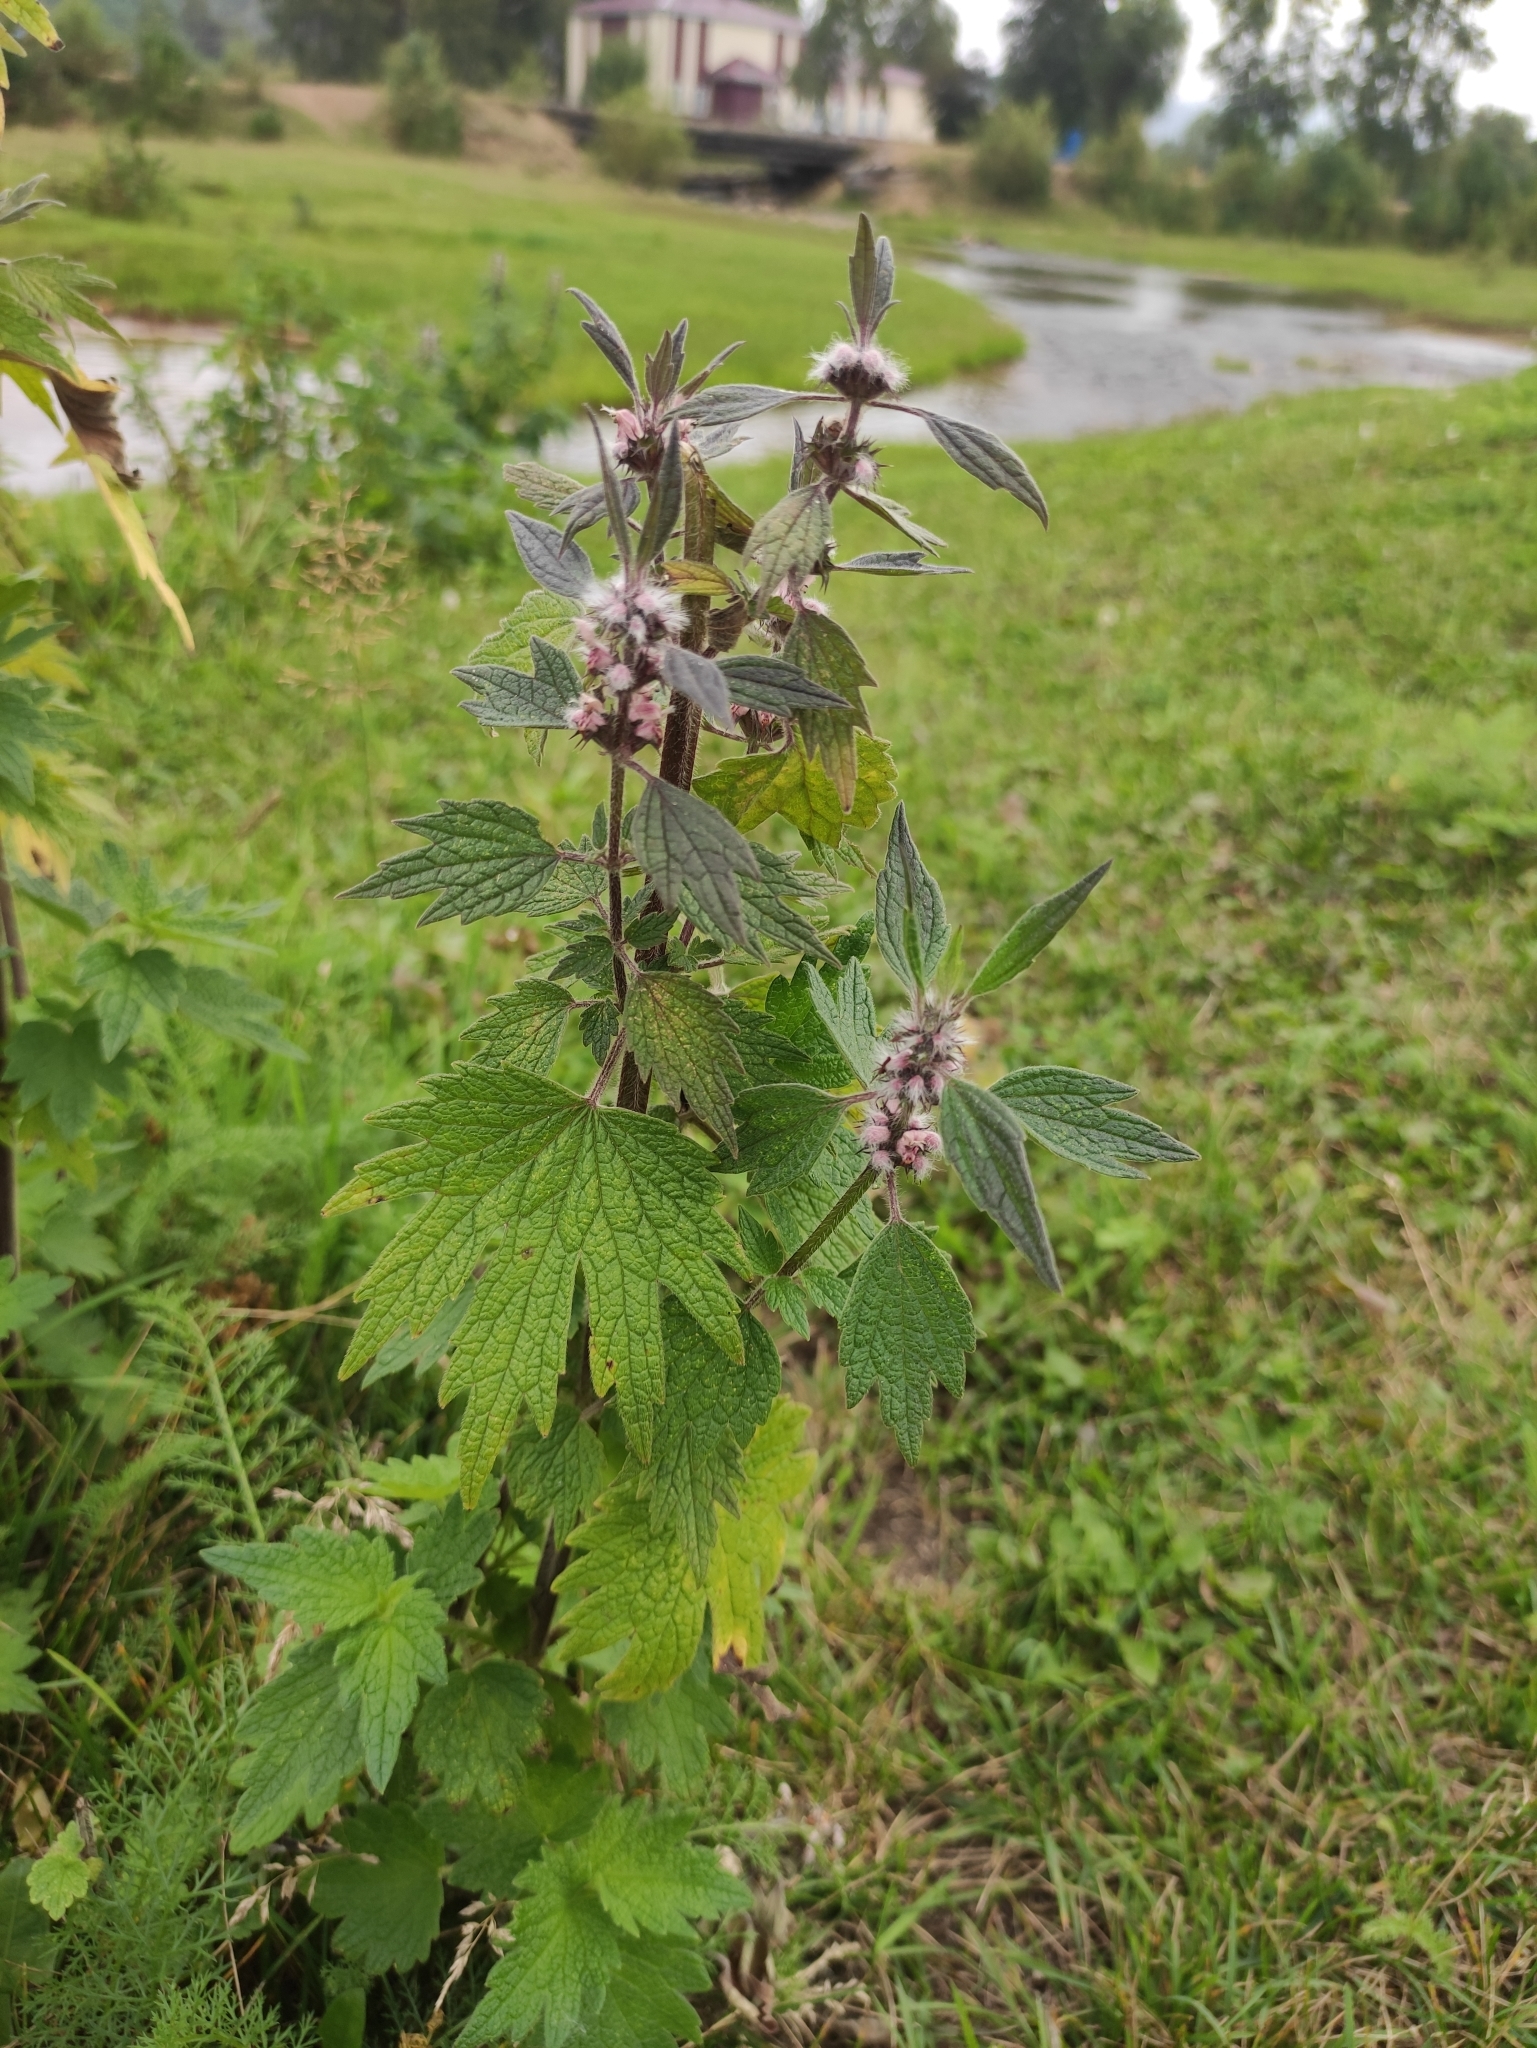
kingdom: Plantae
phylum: Tracheophyta
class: Magnoliopsida
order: Lamiales
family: Lamiaceae
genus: Leonurus
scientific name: Leonurus quinquelobatus
